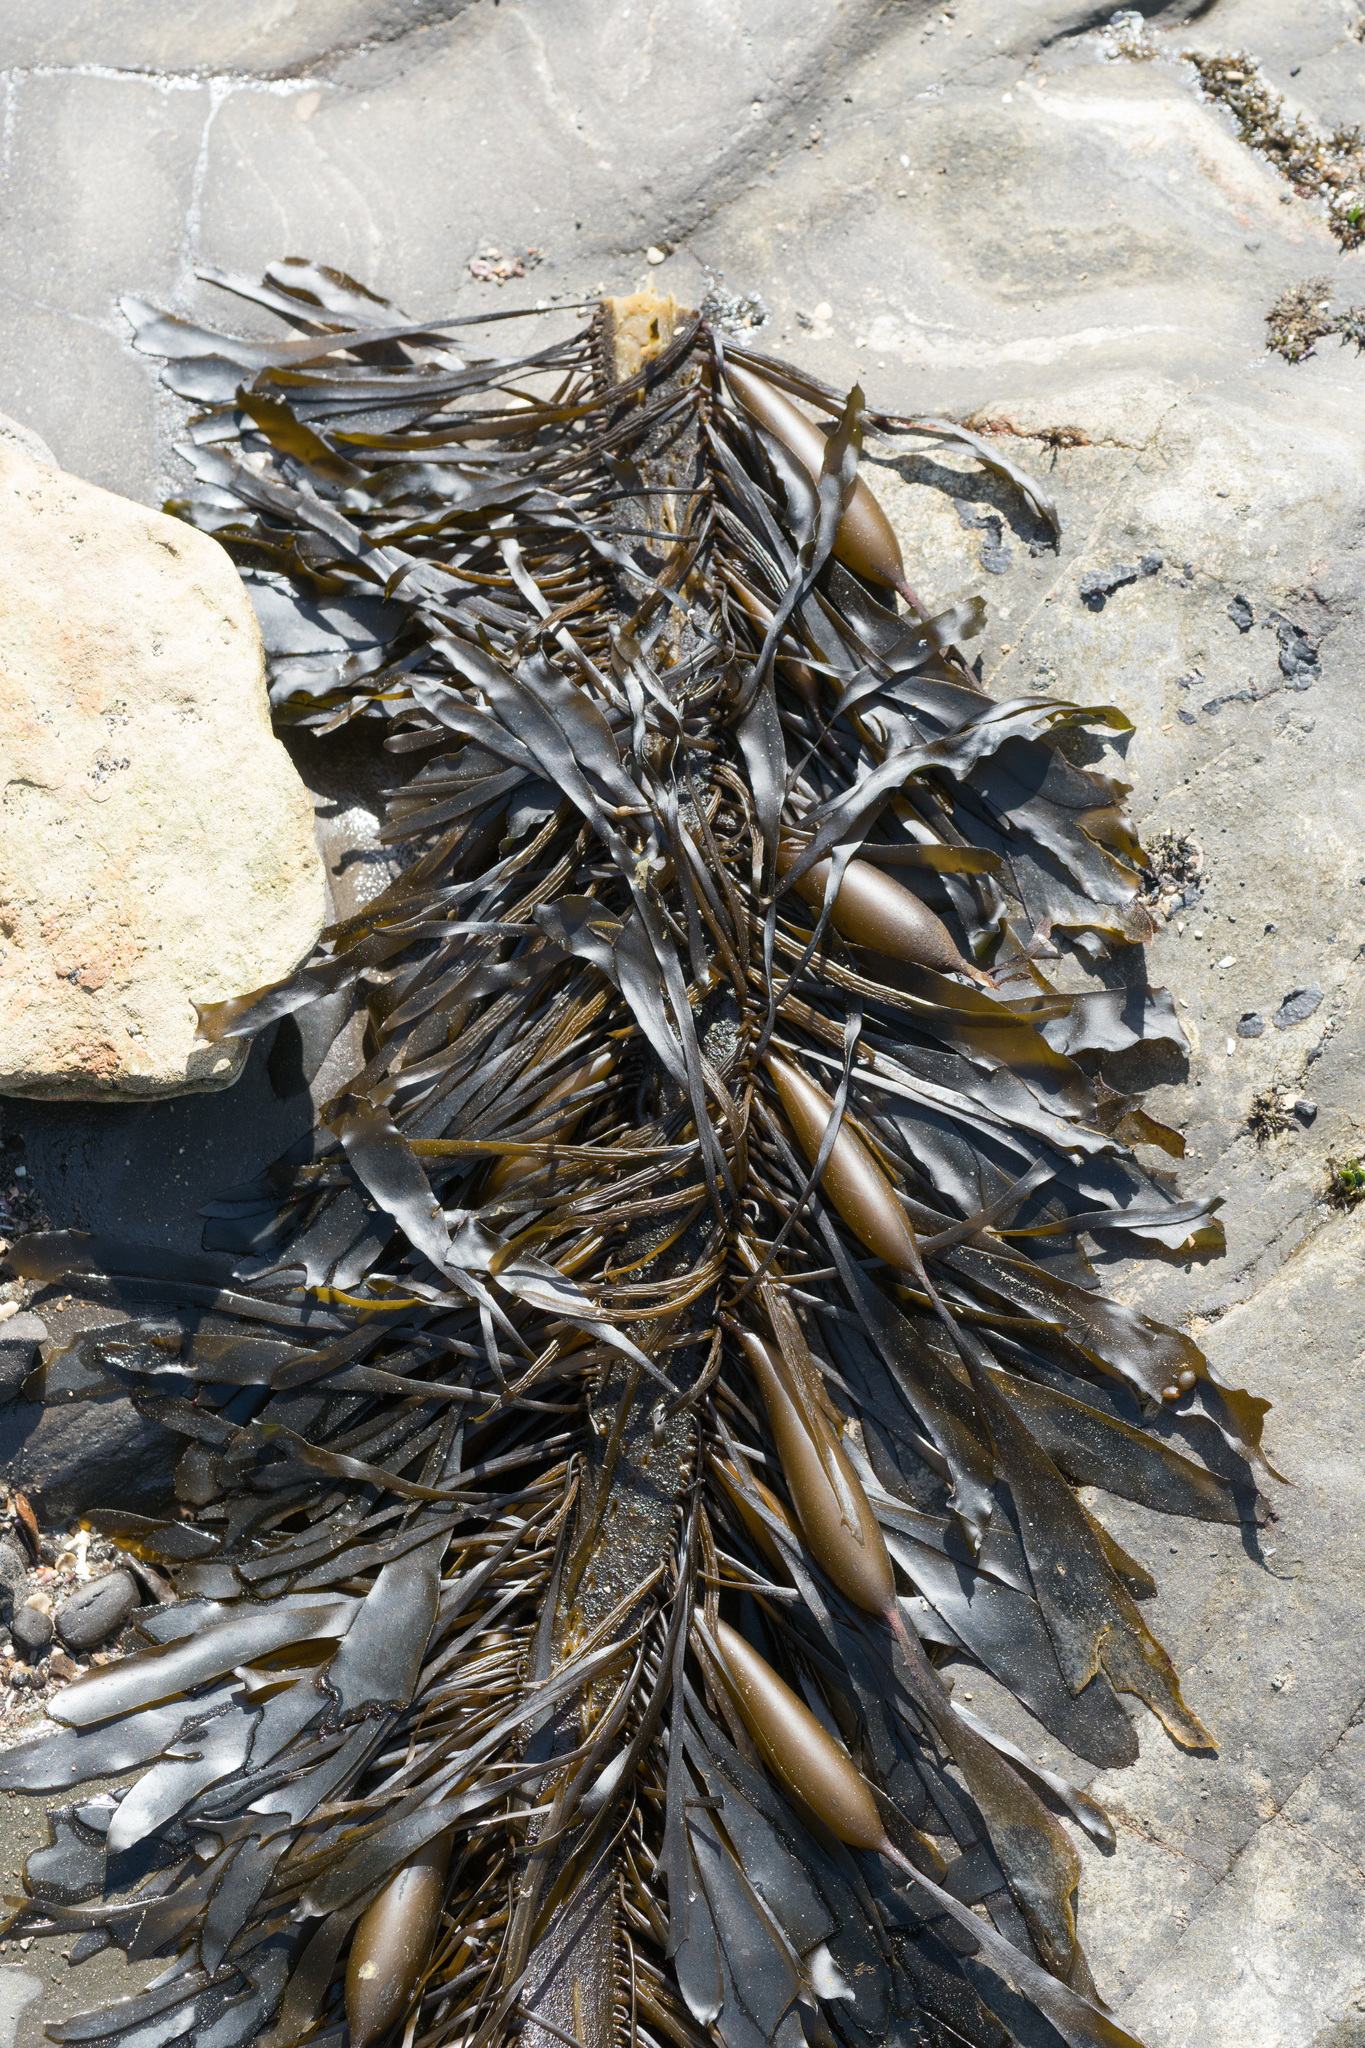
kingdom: Chromista
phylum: Ochrophyta
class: Phaeophyceae
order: Laminariales
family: Lessoniaceae
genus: Egregia
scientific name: Egregia menziesii
